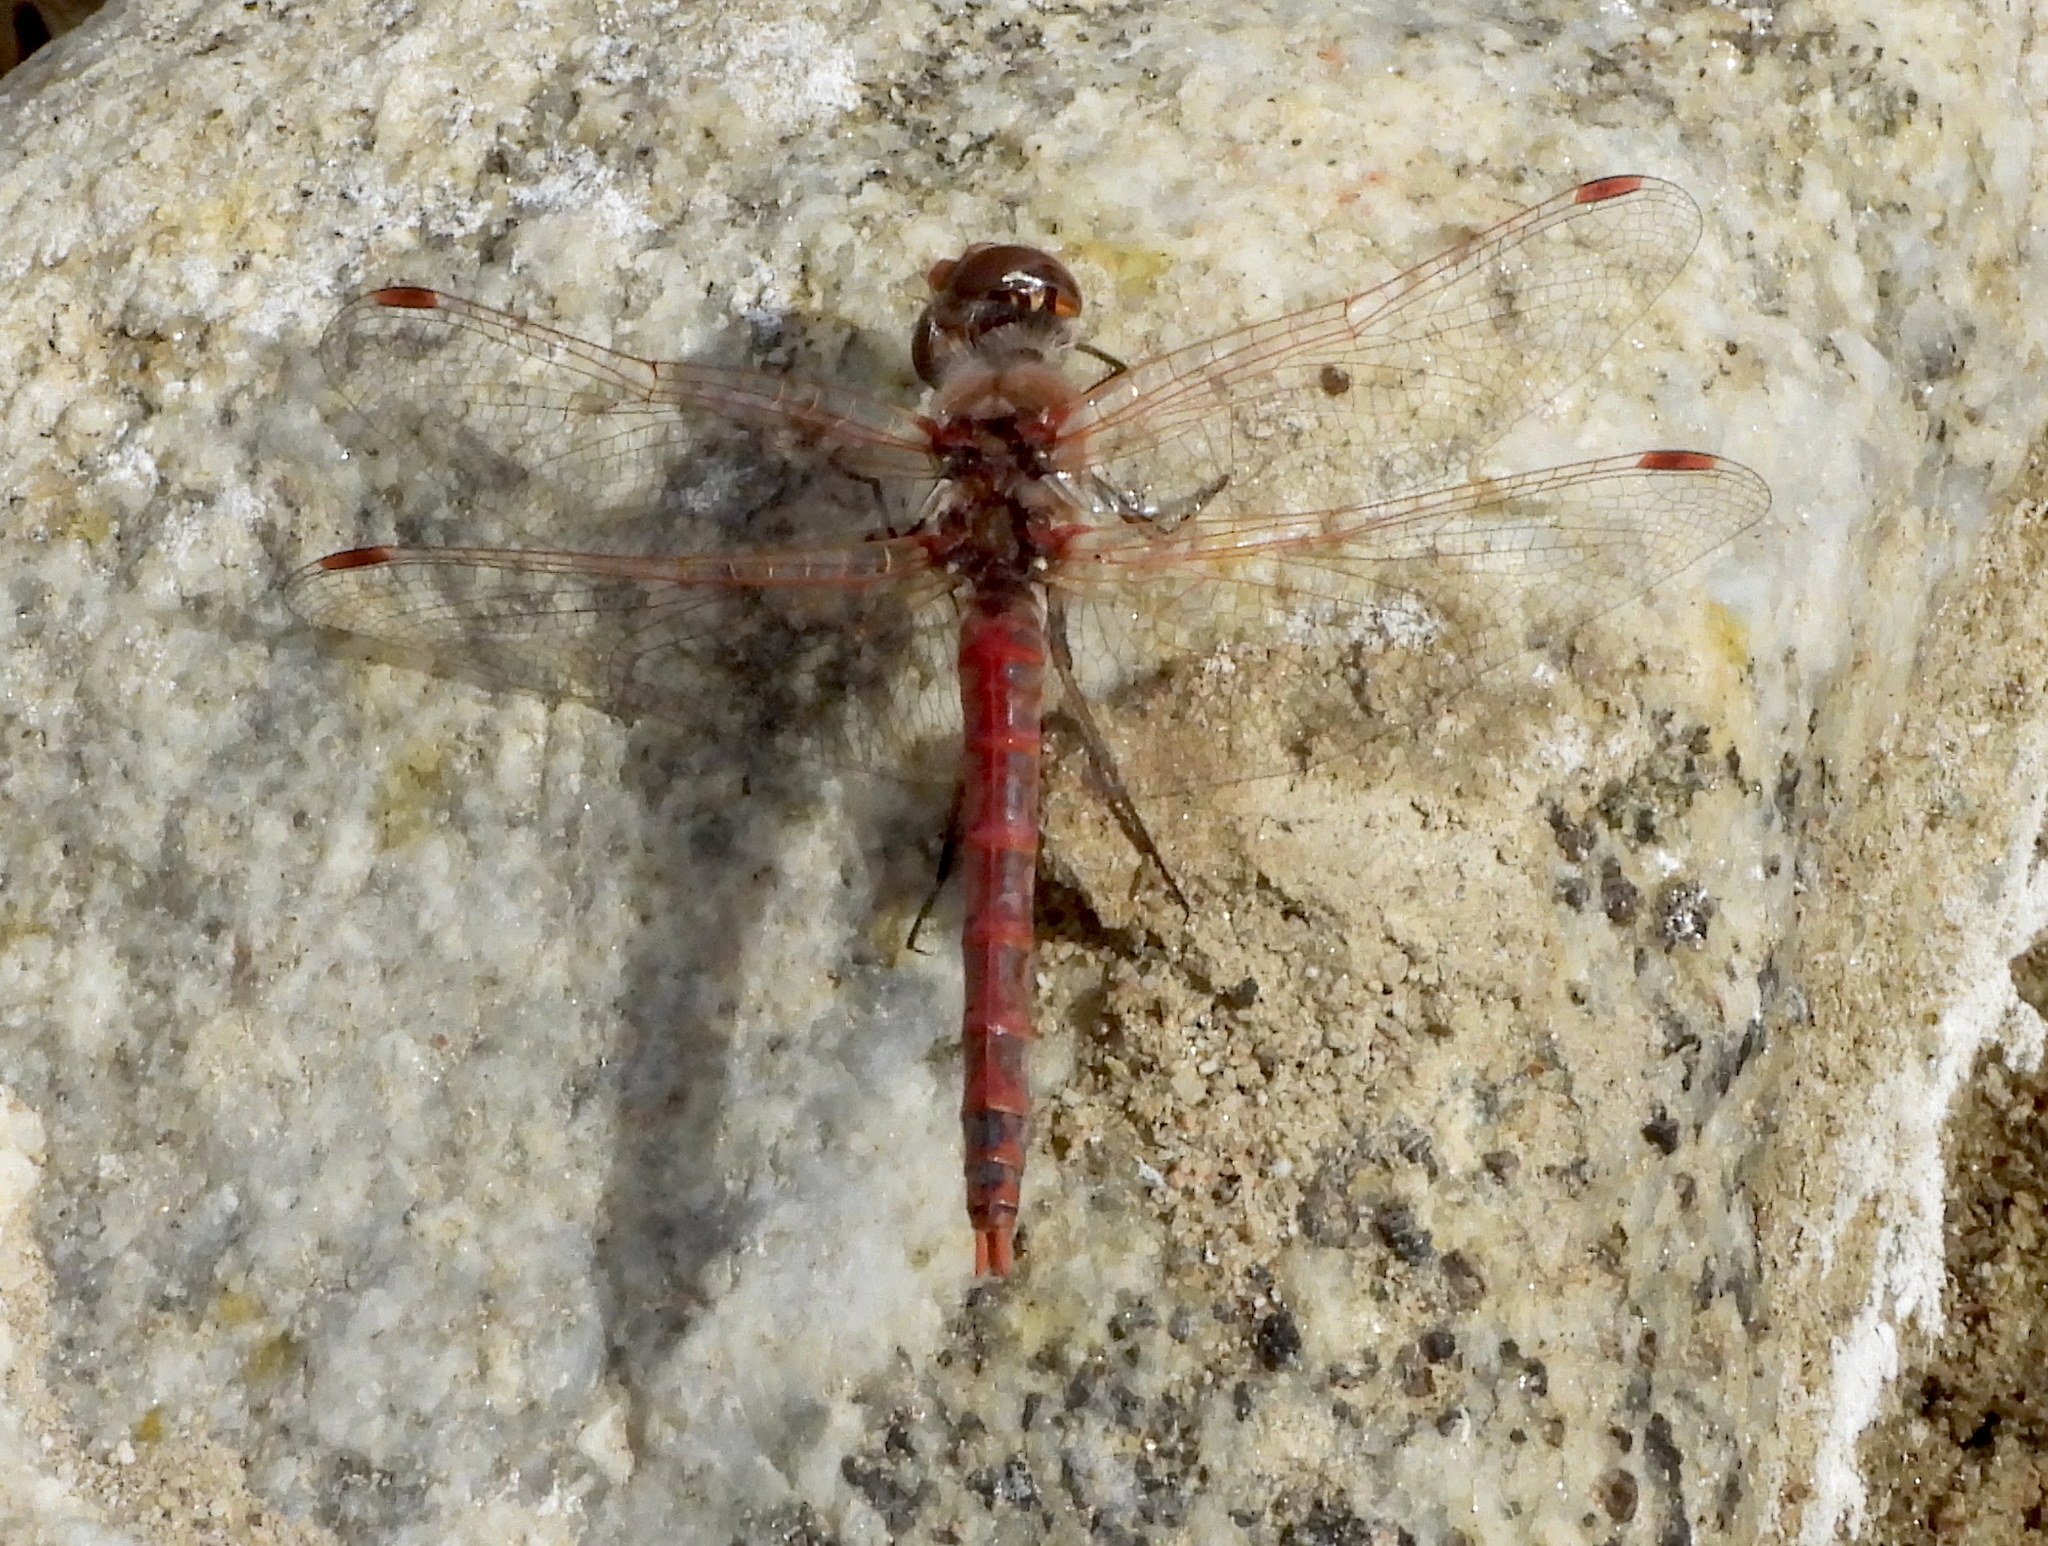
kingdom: Animalia
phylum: Arthropoda
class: Insecta
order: Odonata
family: Libellulidae
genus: Sympetrum
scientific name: Sympetrum corruptum
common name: Variegated meadowhawk
